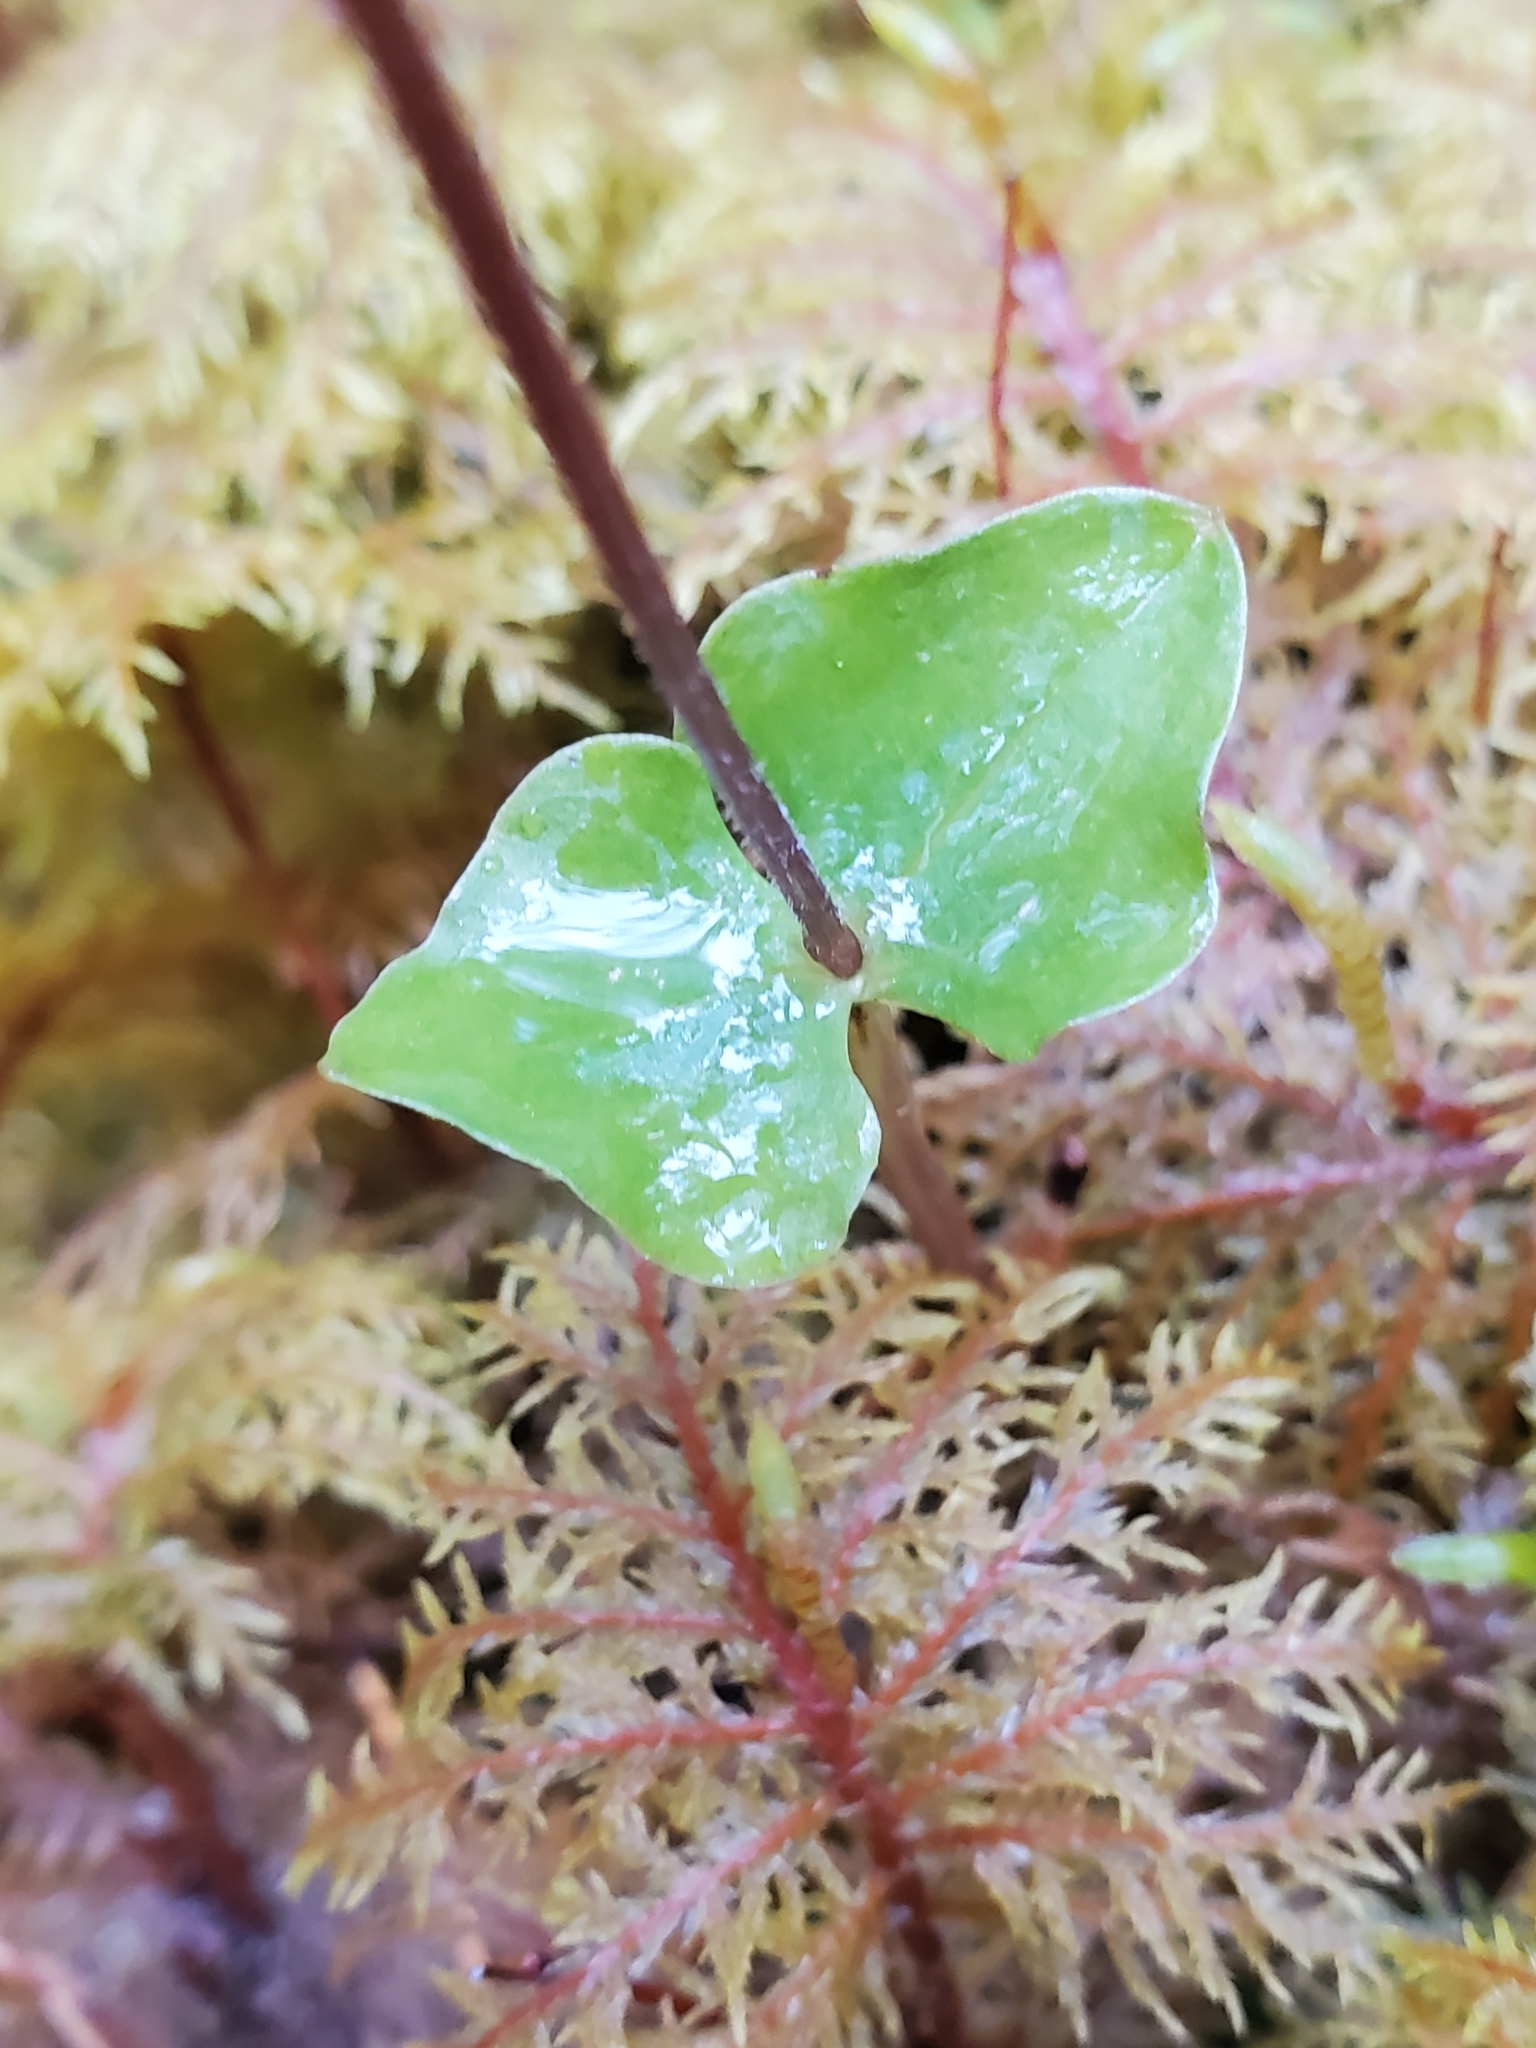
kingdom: Plantae
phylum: Tracheophyta
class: Liliopsida
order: Asparagales
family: Orchidaceae
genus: Neottia
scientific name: Neottia cordata
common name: Lesser twayblade
